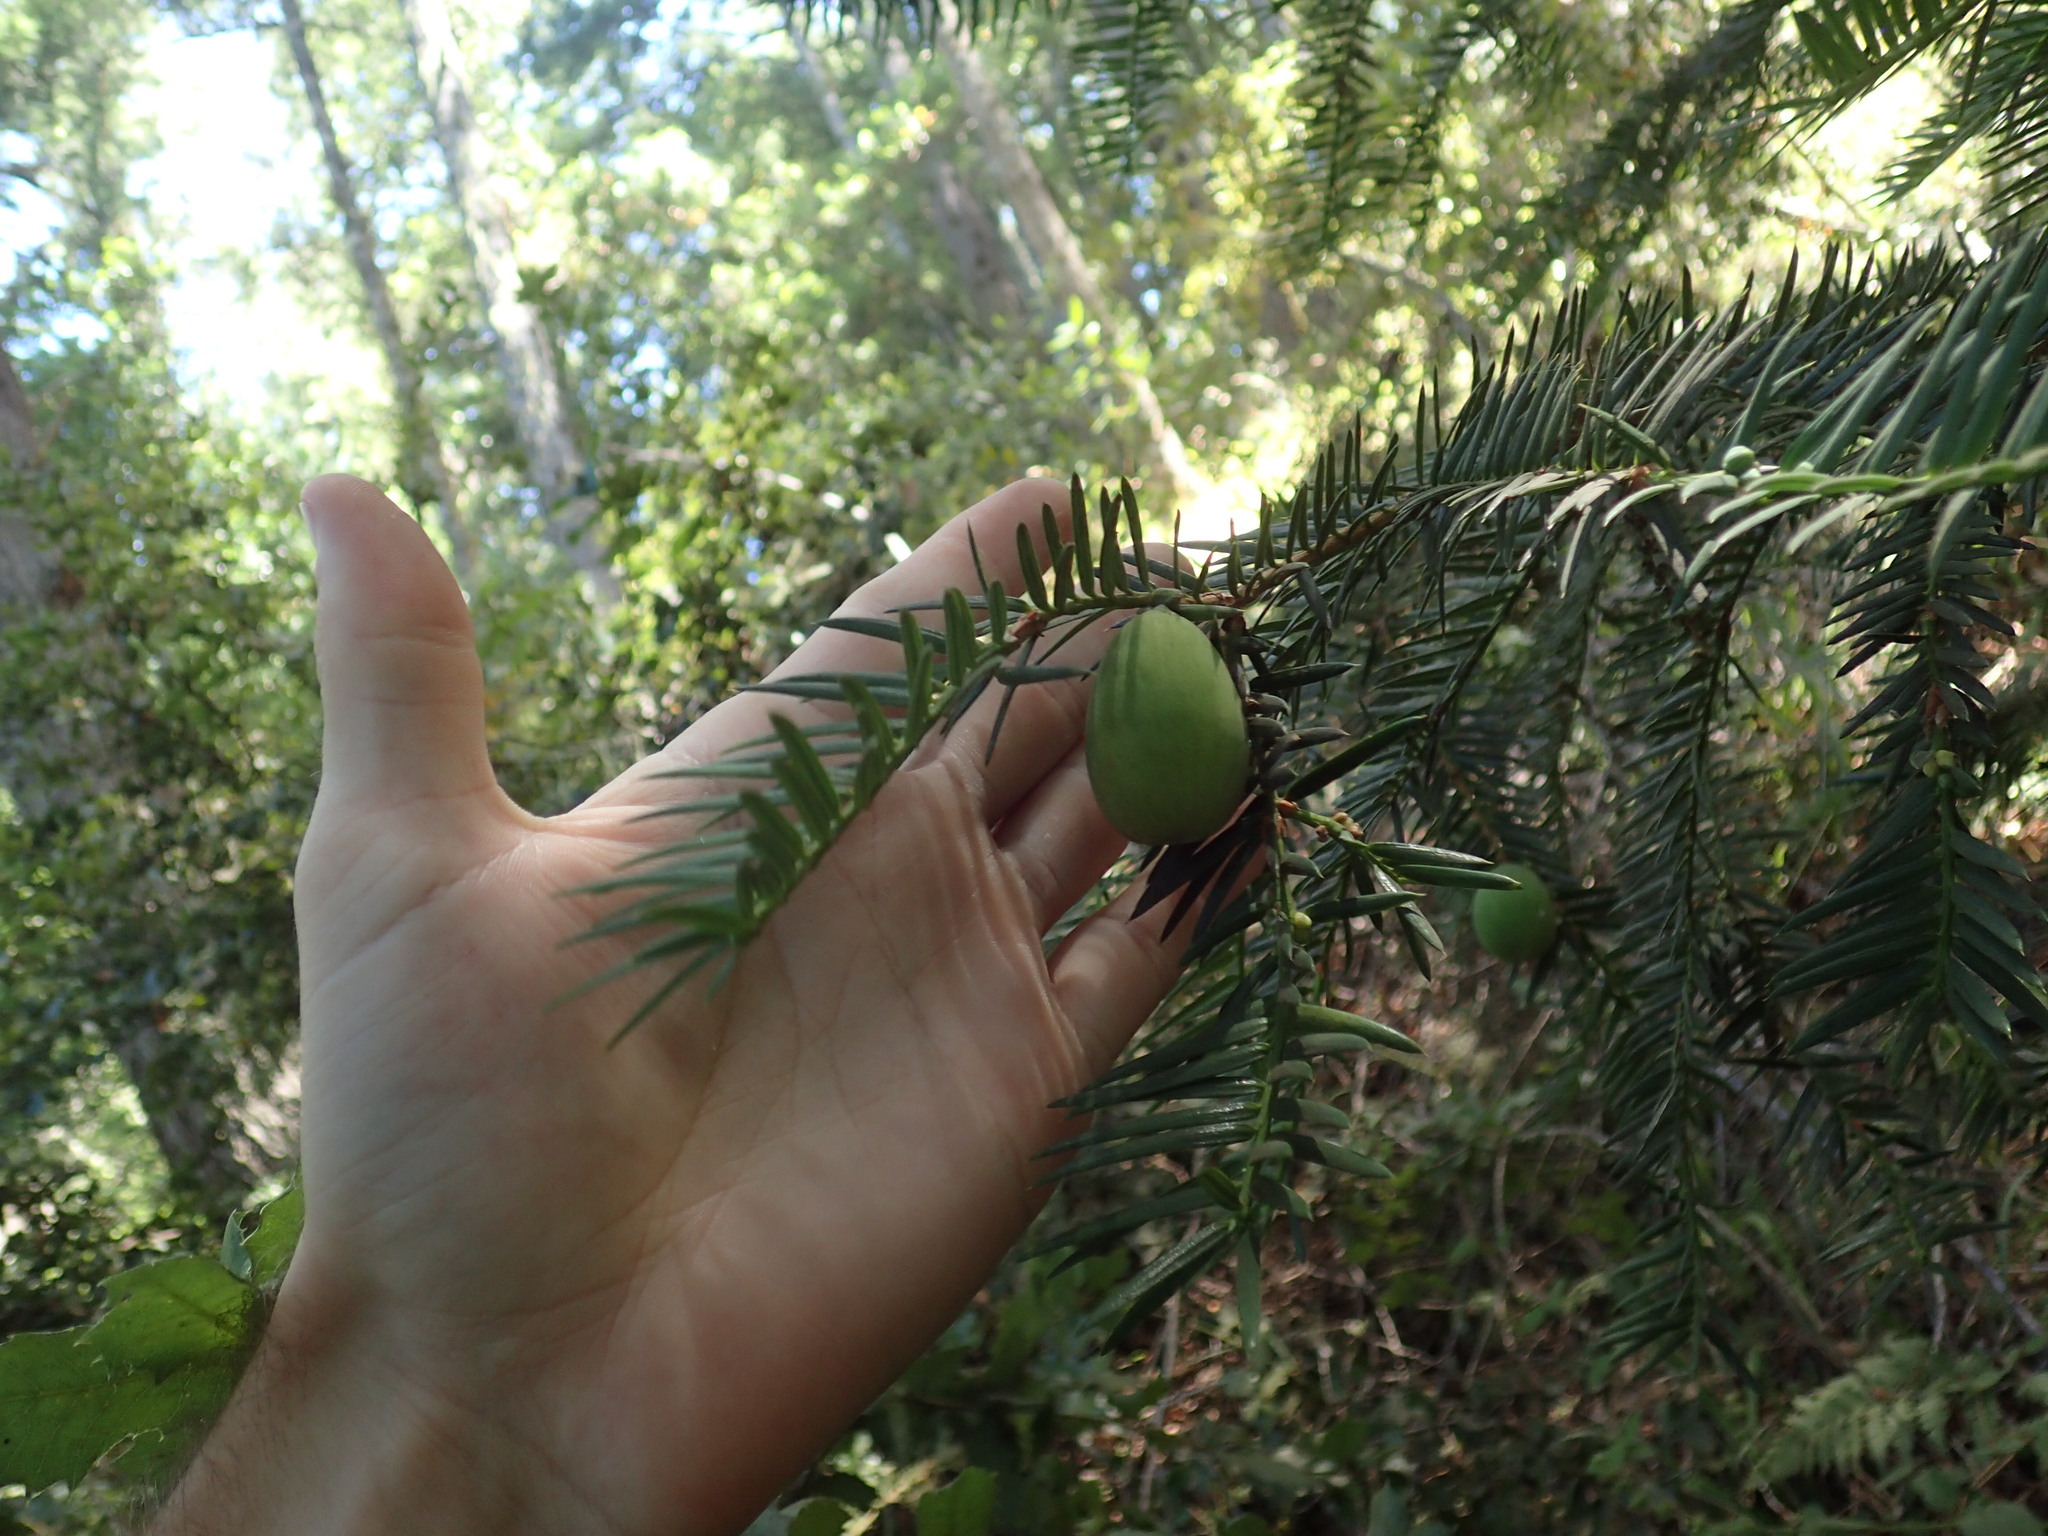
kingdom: Plantae
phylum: Tracheophyta
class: Pinopsida
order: Pinales
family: Taxaceae
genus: Torreya
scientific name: Torreya californica
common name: California torreya
